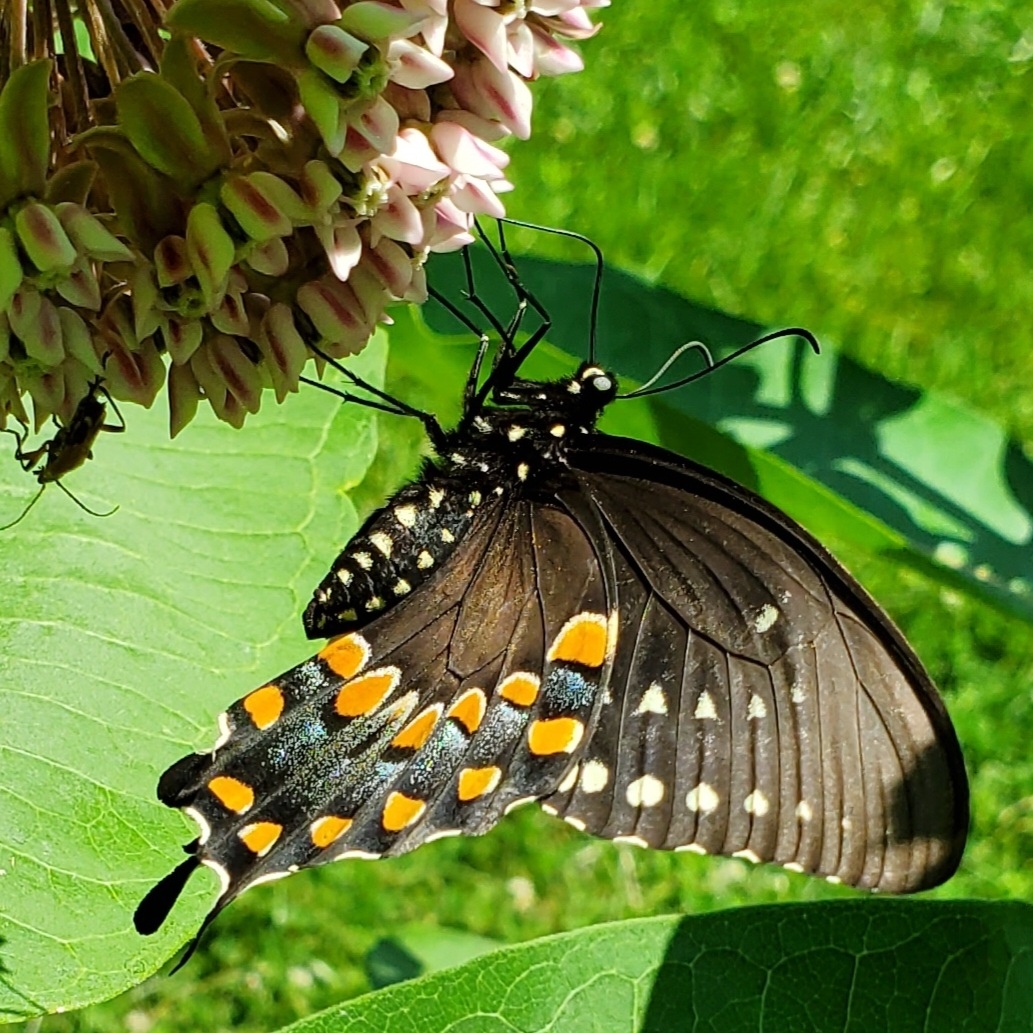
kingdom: Animalia
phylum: Arthropoda
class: Insecta
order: Lepidoptera
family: Papilionidae
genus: Papilio
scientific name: Papilio troilus
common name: Spicebush swallowtail
